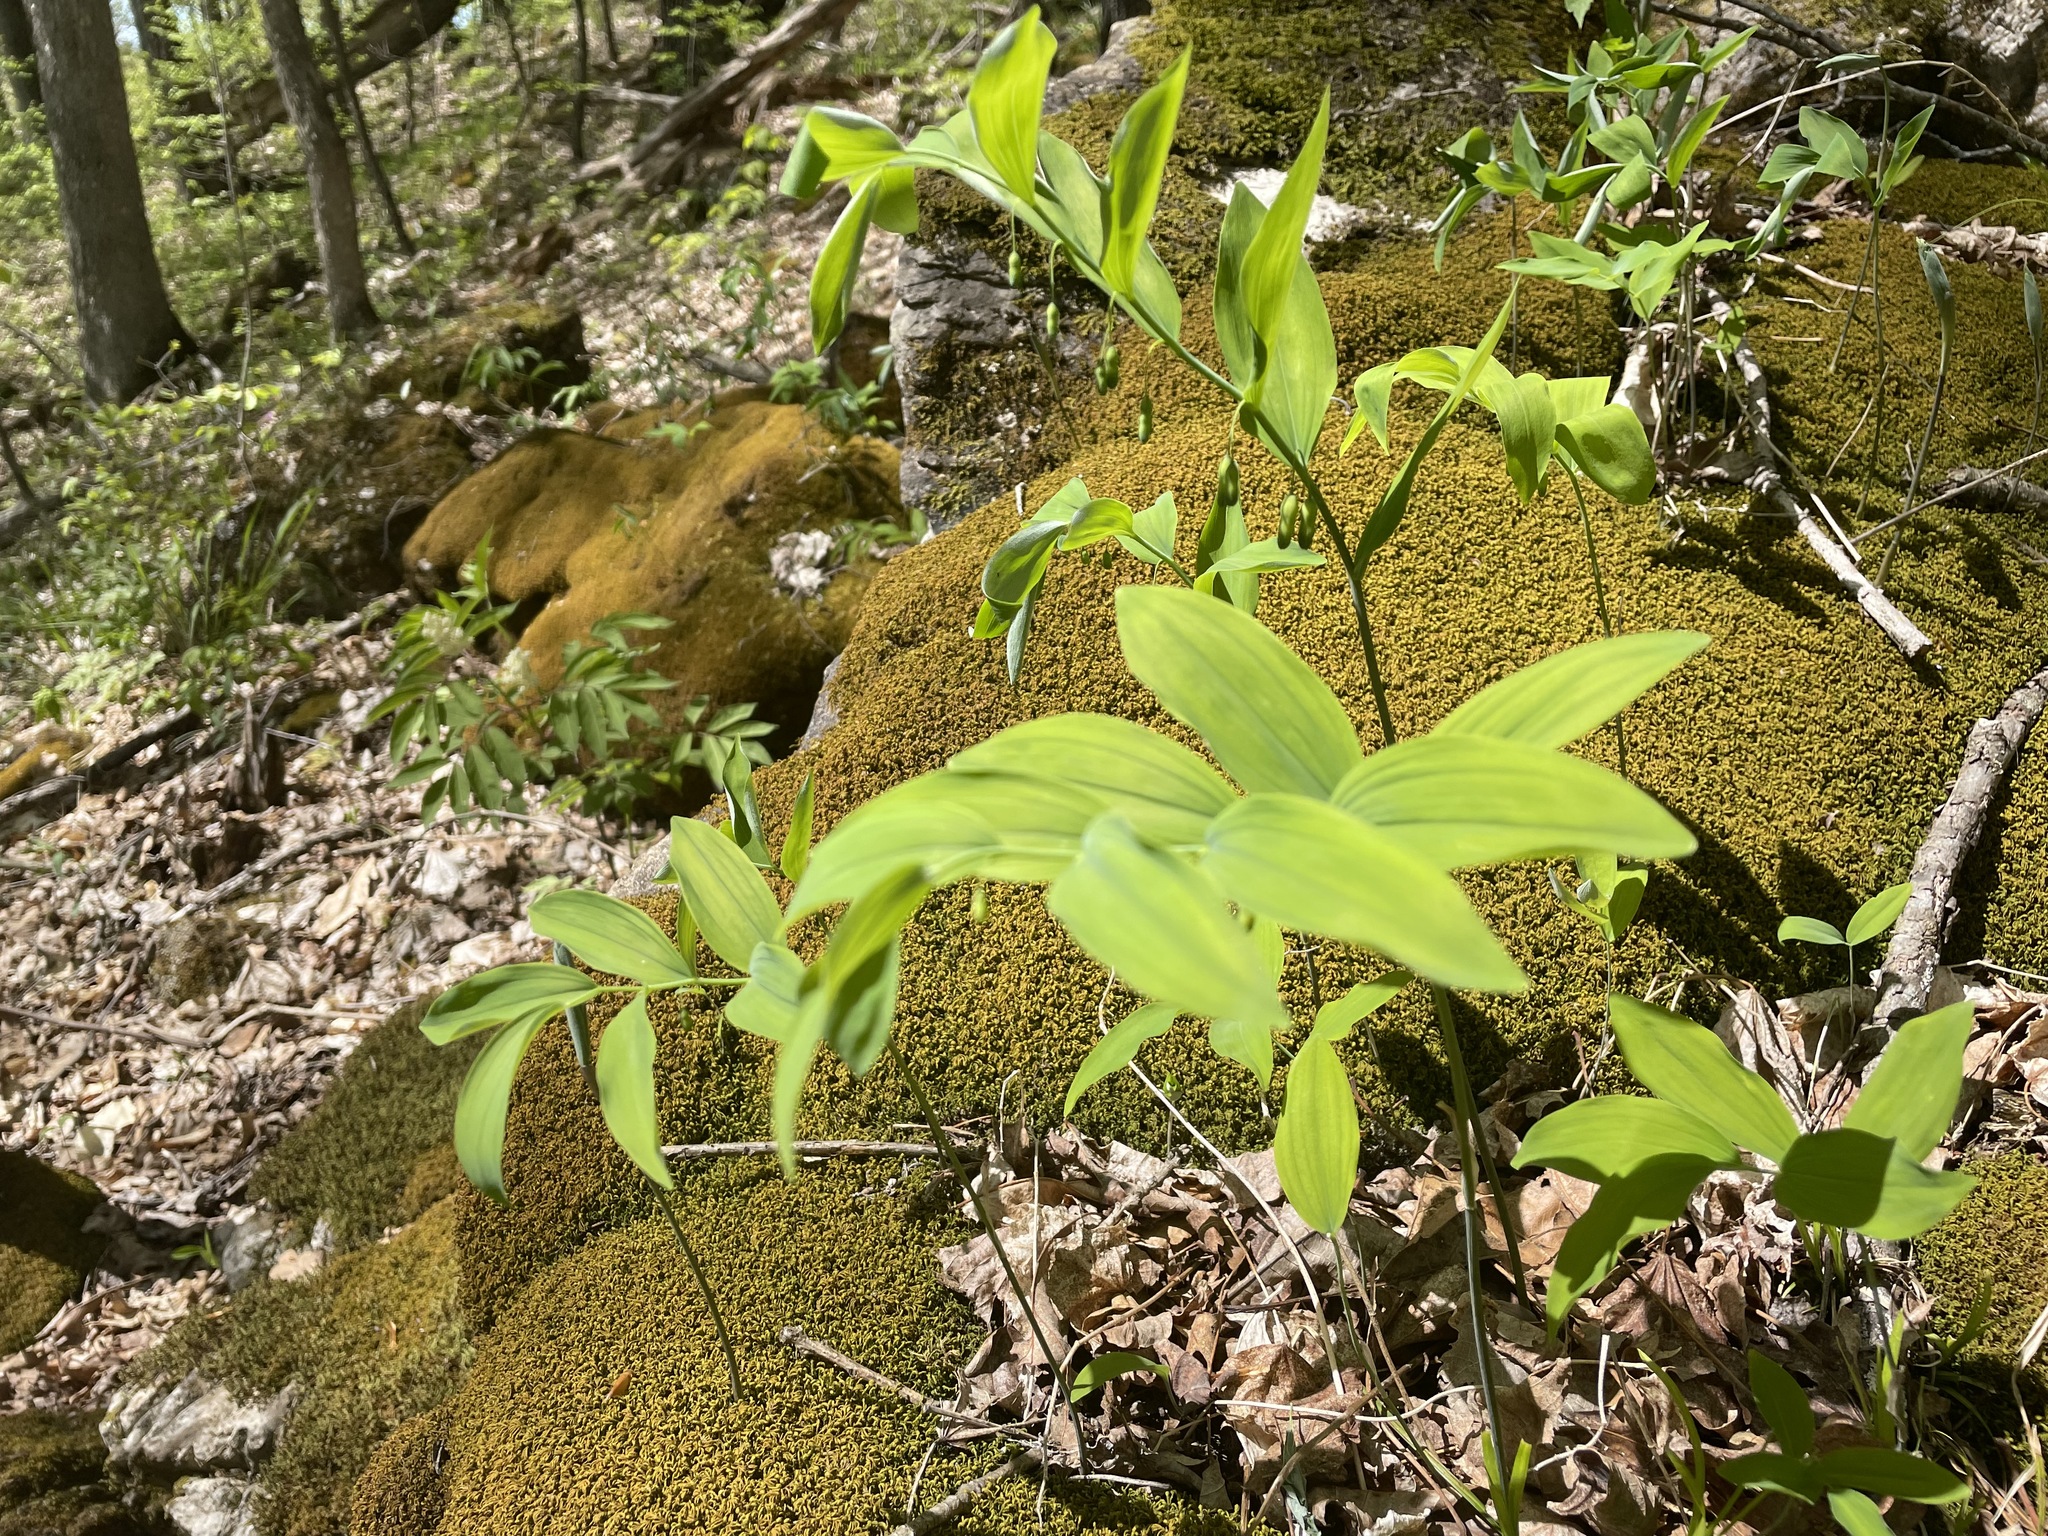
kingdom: Plantae
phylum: Tracheophyta
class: Liliopsida
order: Asparagales
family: Asparagaceae
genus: Polygonatum
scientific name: Polygonatum pubescens
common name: Downy solomon's seal
